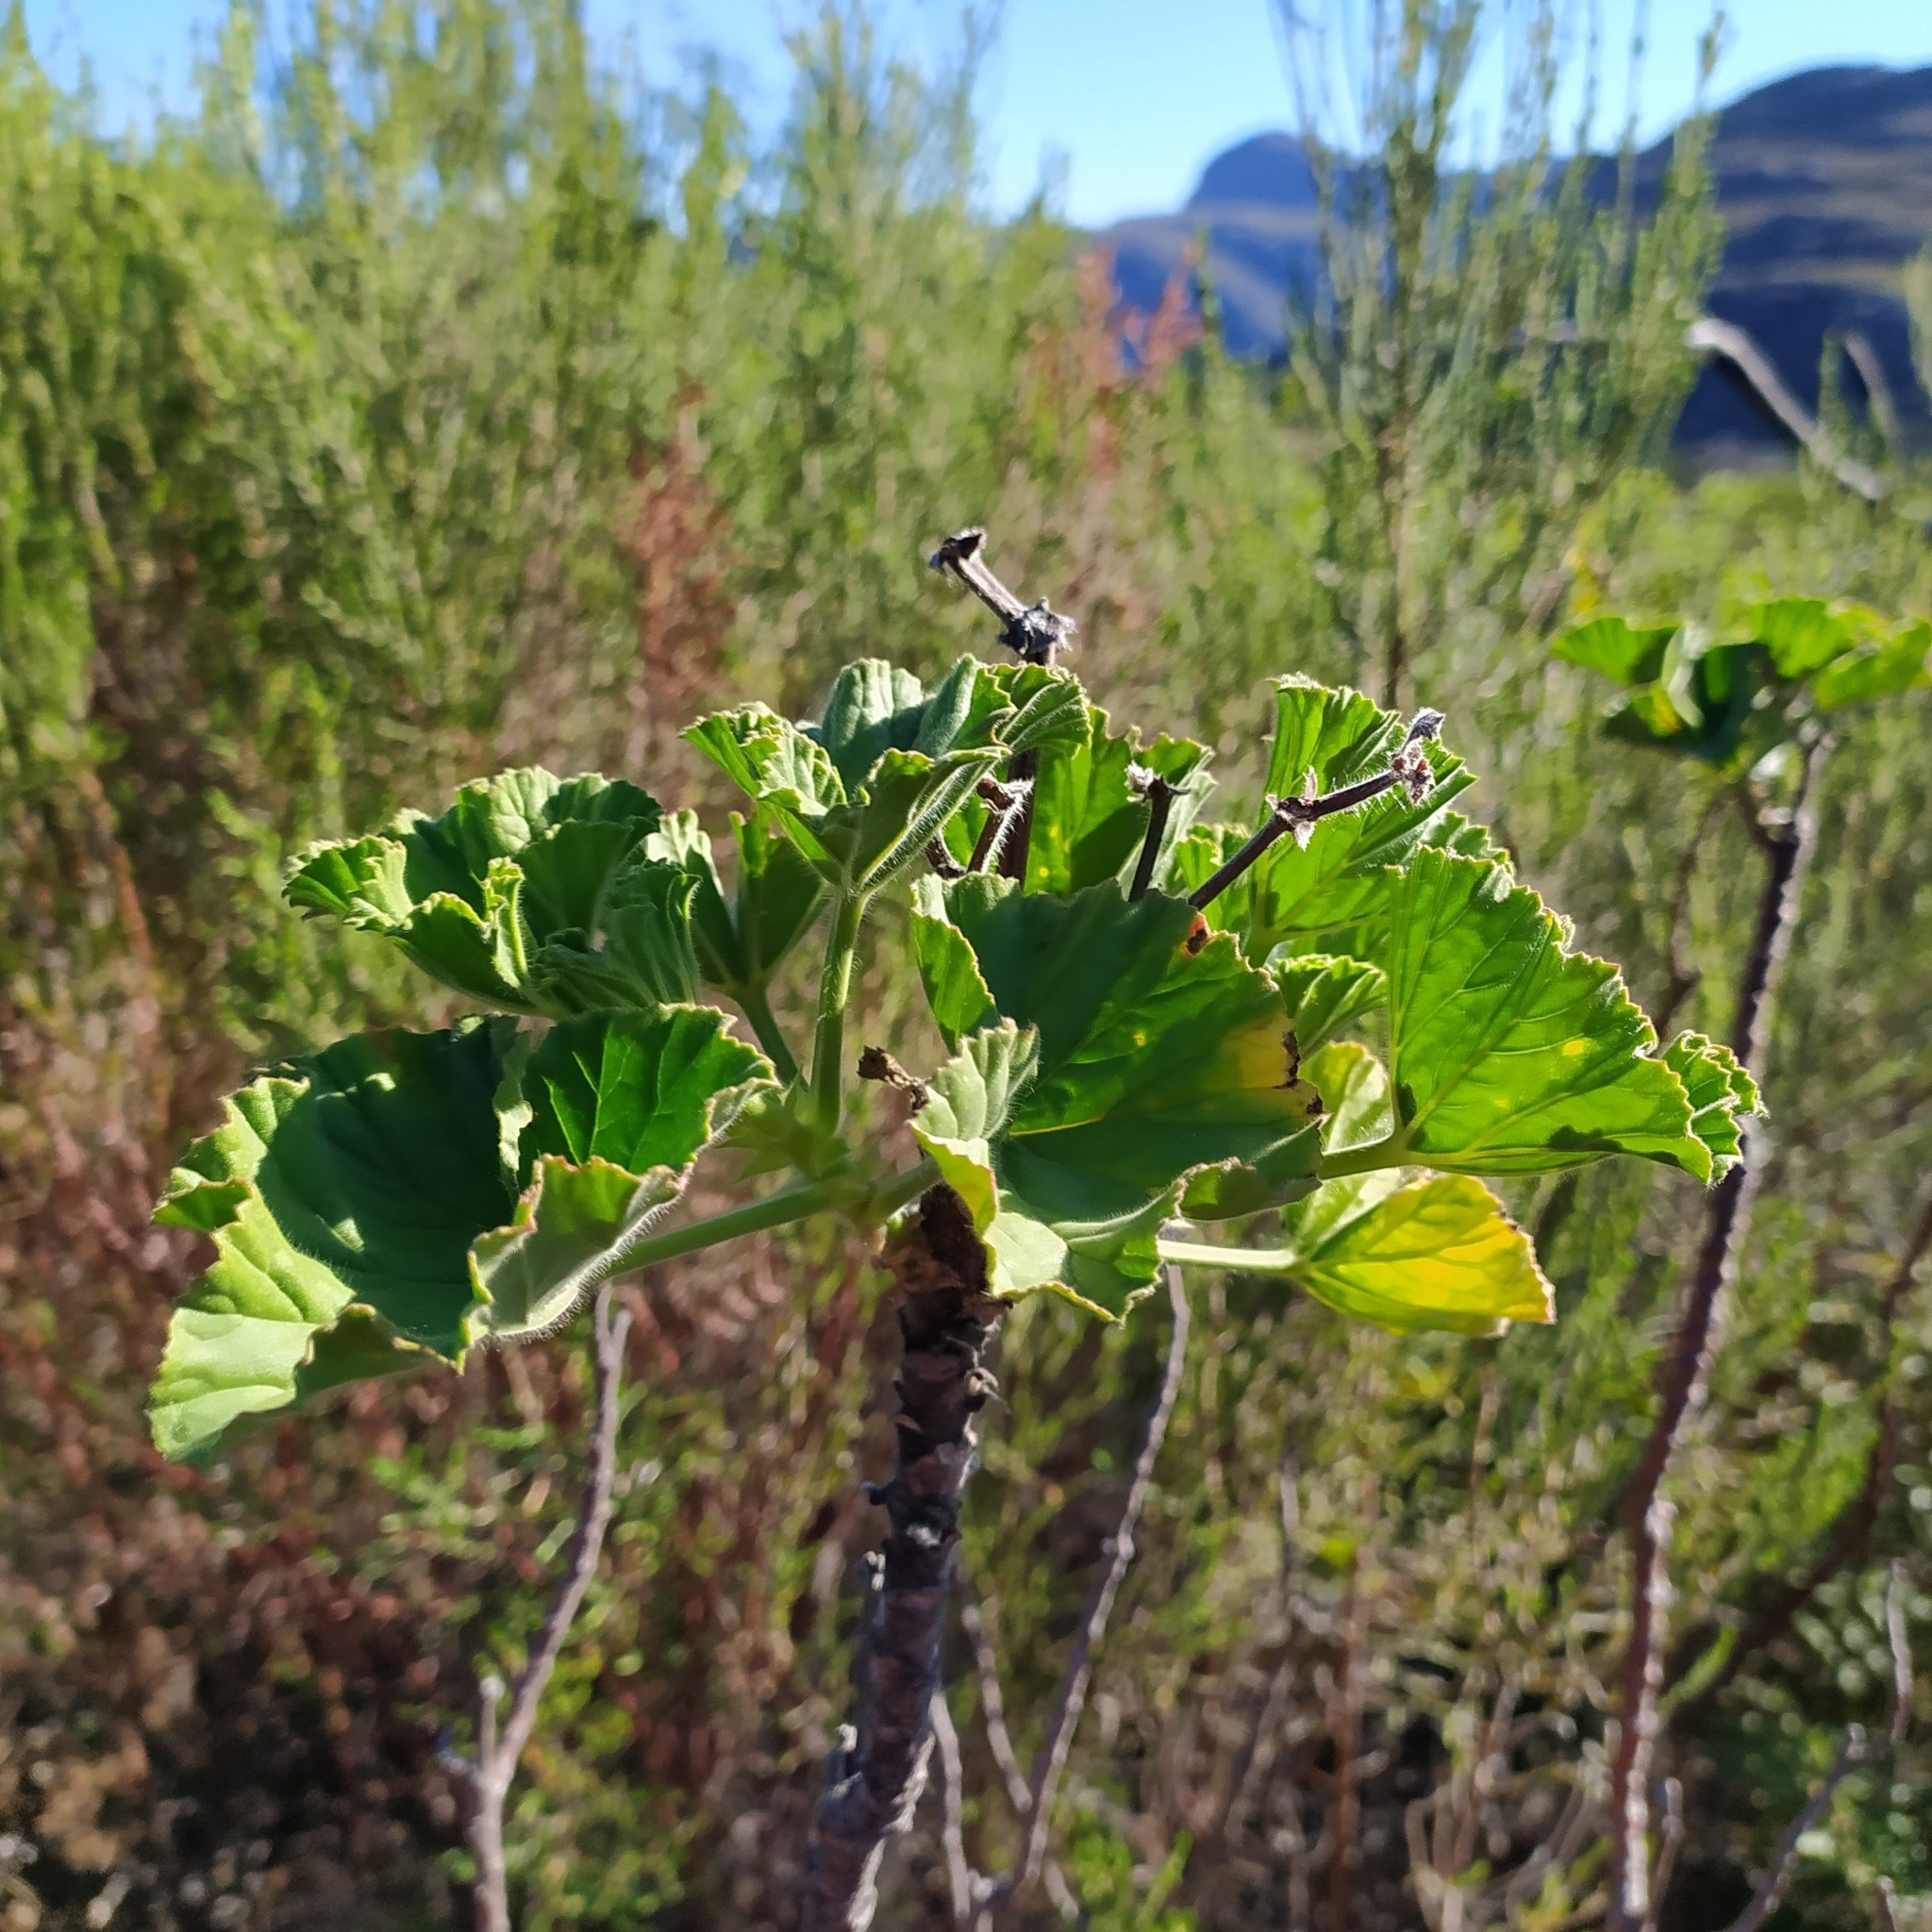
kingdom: Plantae
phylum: Tracheophyta
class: Magnoliopsida
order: Geraniales
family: Geraniaceae
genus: Pelargonium
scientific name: Pelargonium cucullatum
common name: Tree pelargonium
